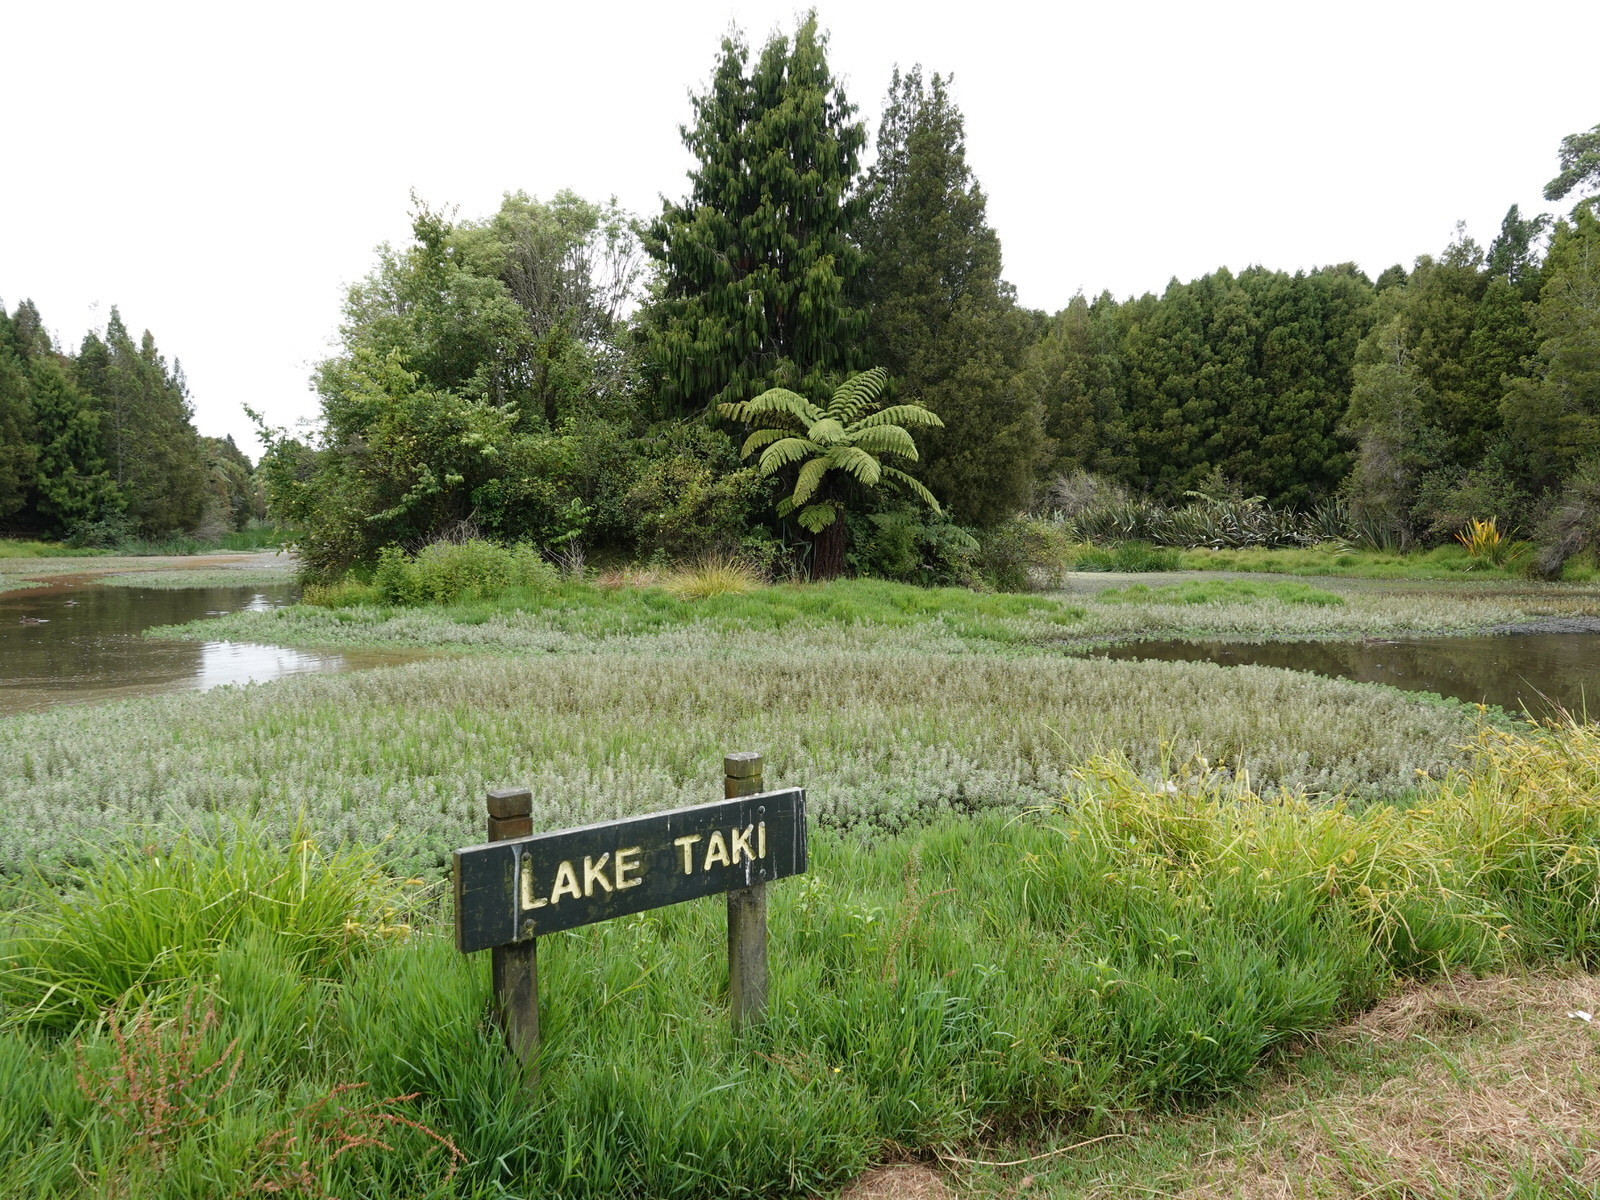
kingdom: Plantae
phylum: Tracheophyta
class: Magnoliopsida
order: Saxifragales
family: Haloragaceae
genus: Myriophyllum
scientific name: Myriophyllum aquaticum
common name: Parrot's feather
